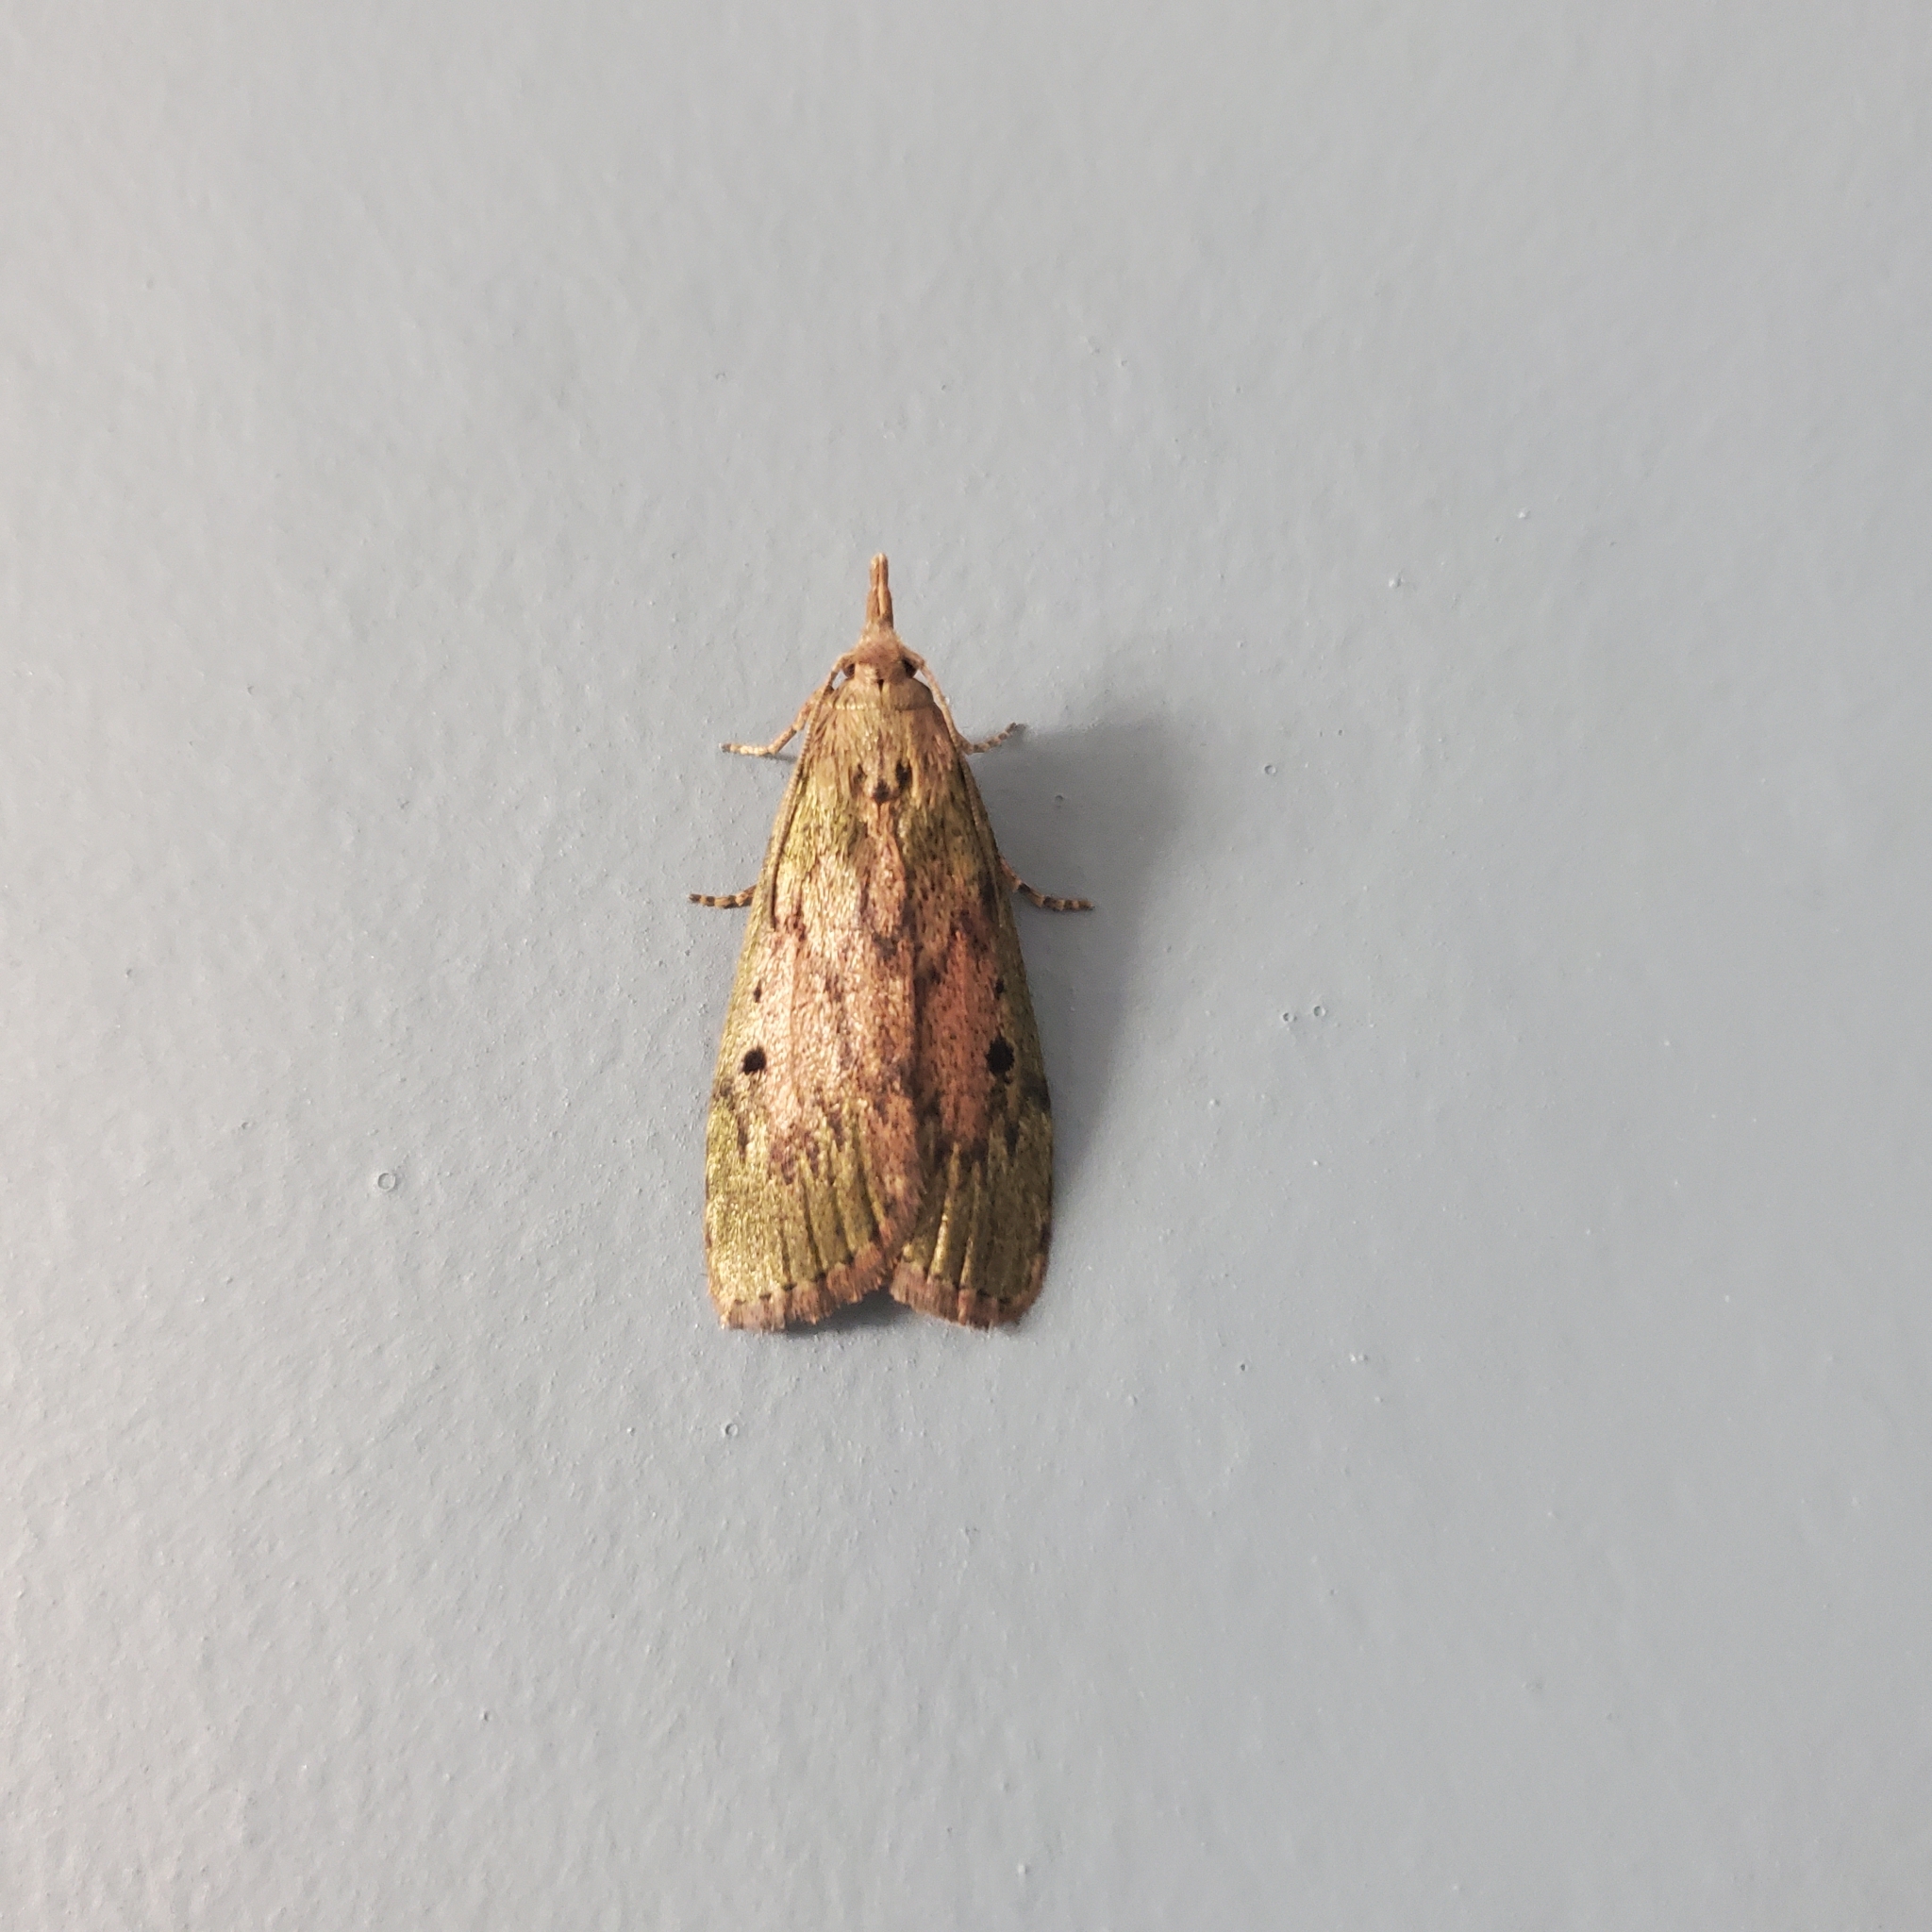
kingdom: Animalia
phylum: Arthropoda
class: Insecta
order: Lepidoptera
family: Pyralidae
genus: Aphomia
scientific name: Aphomia sociella
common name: Bee moth
